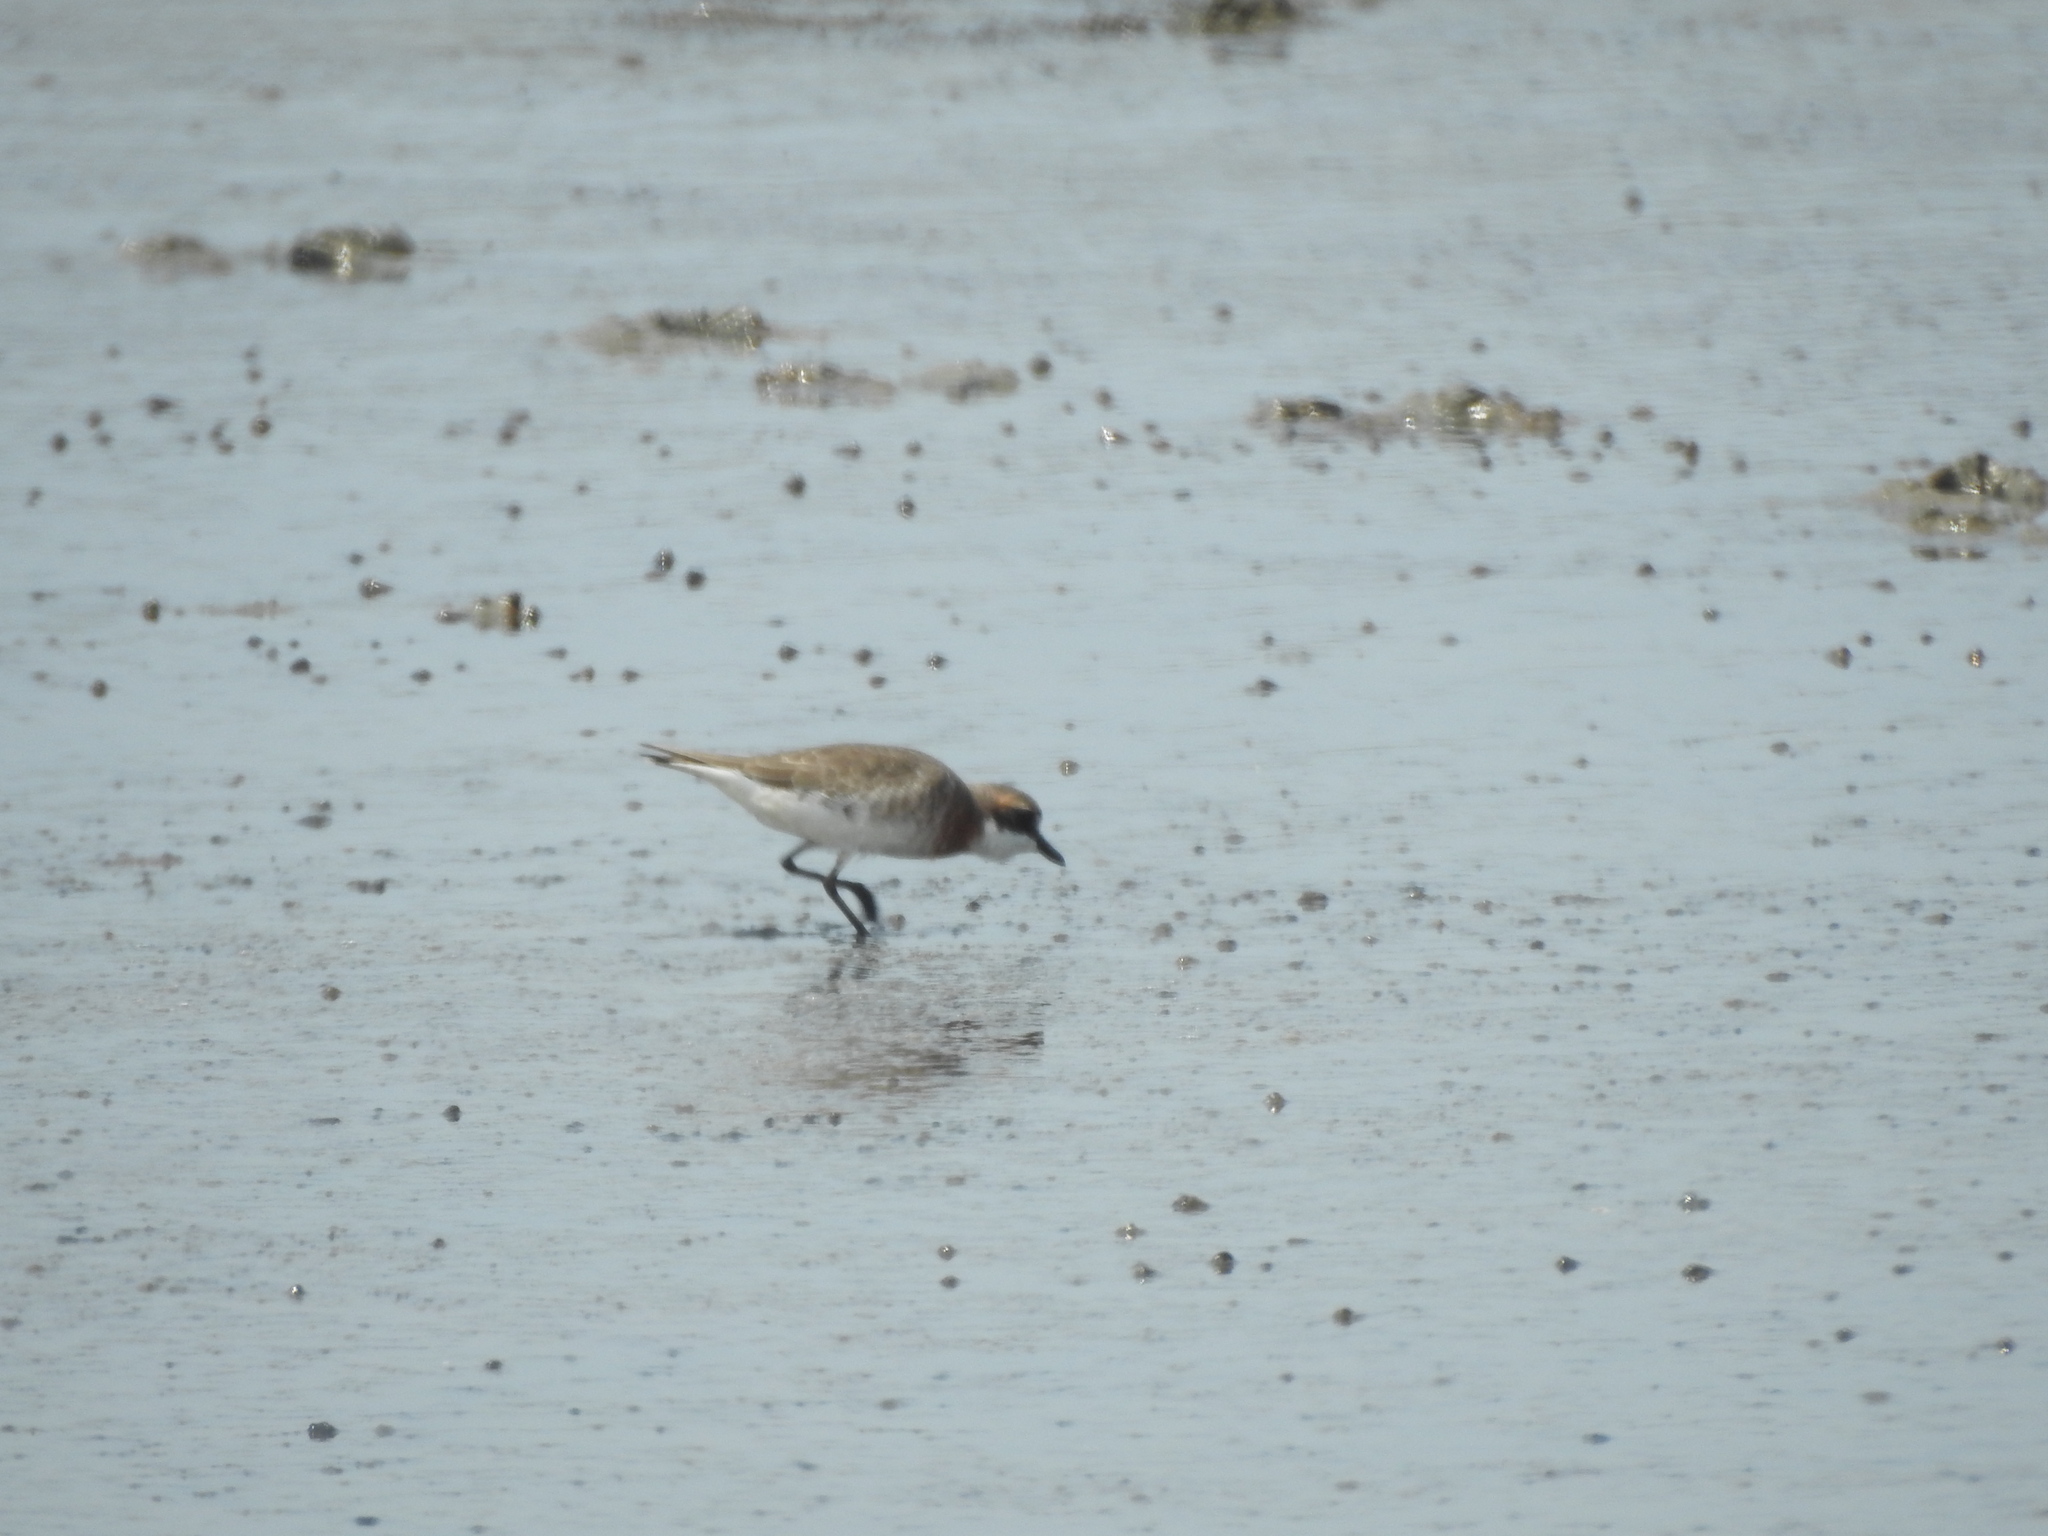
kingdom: Animalia
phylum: Chordata
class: Aves
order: Charadriiformes
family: Charadriidae
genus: Anarhynchus
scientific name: Anarhynchus
